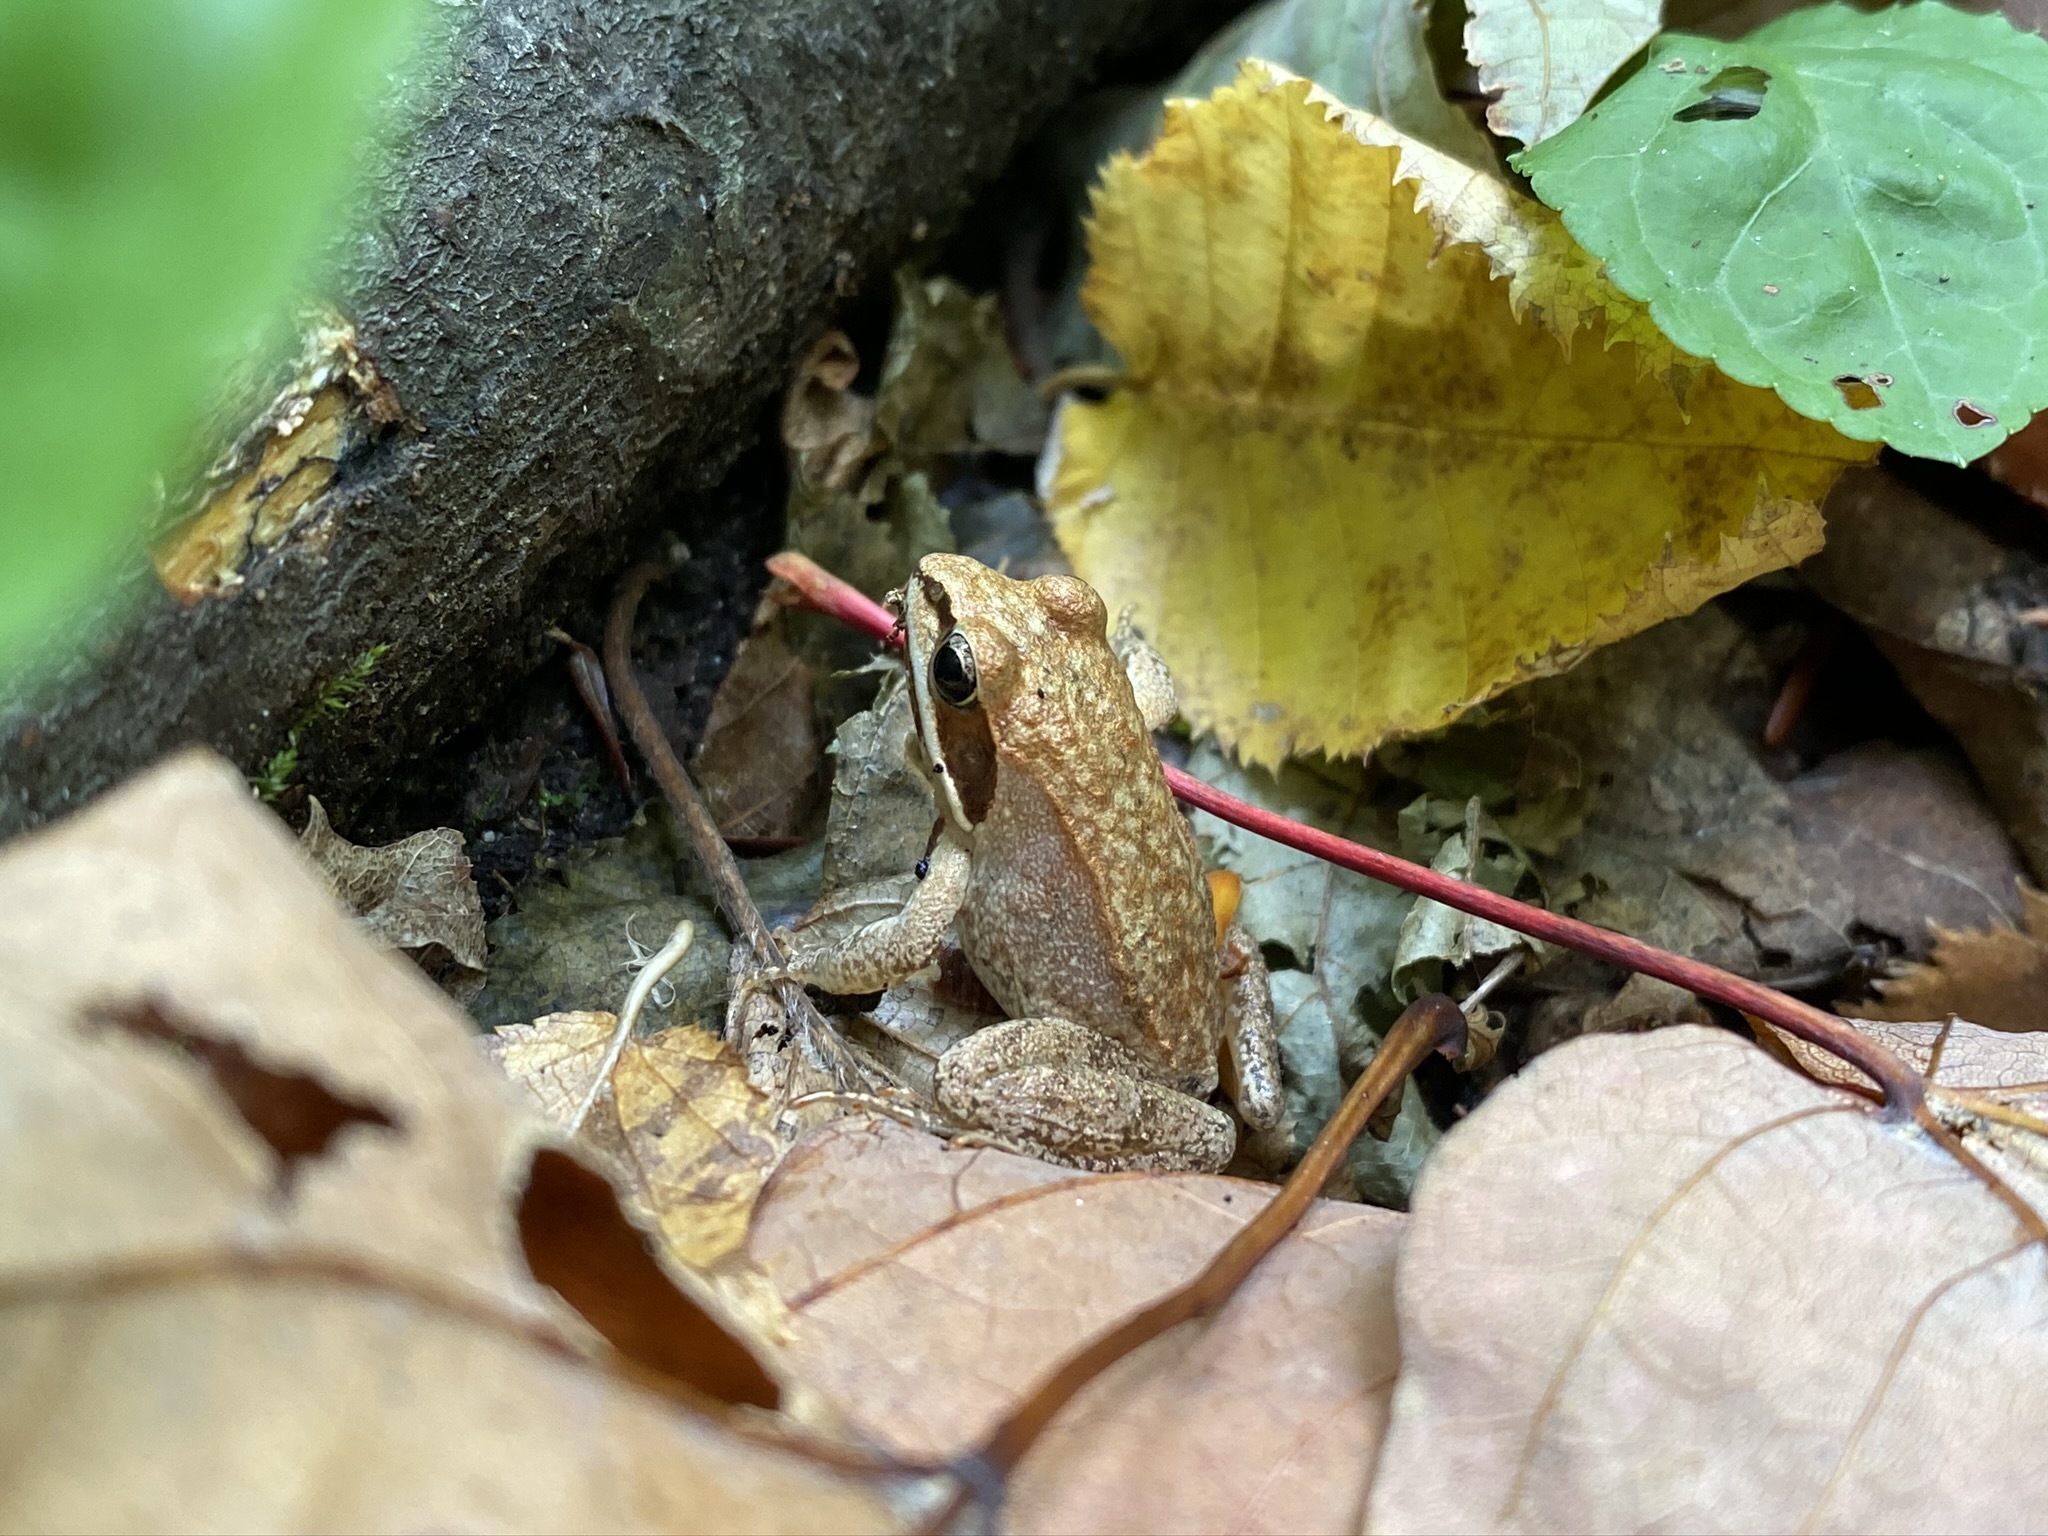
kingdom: Animalia
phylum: Chordata
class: Amphibia
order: Anura
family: Ranidae
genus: Lithobates
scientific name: Lithobates sylvaticus
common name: Wood frog
